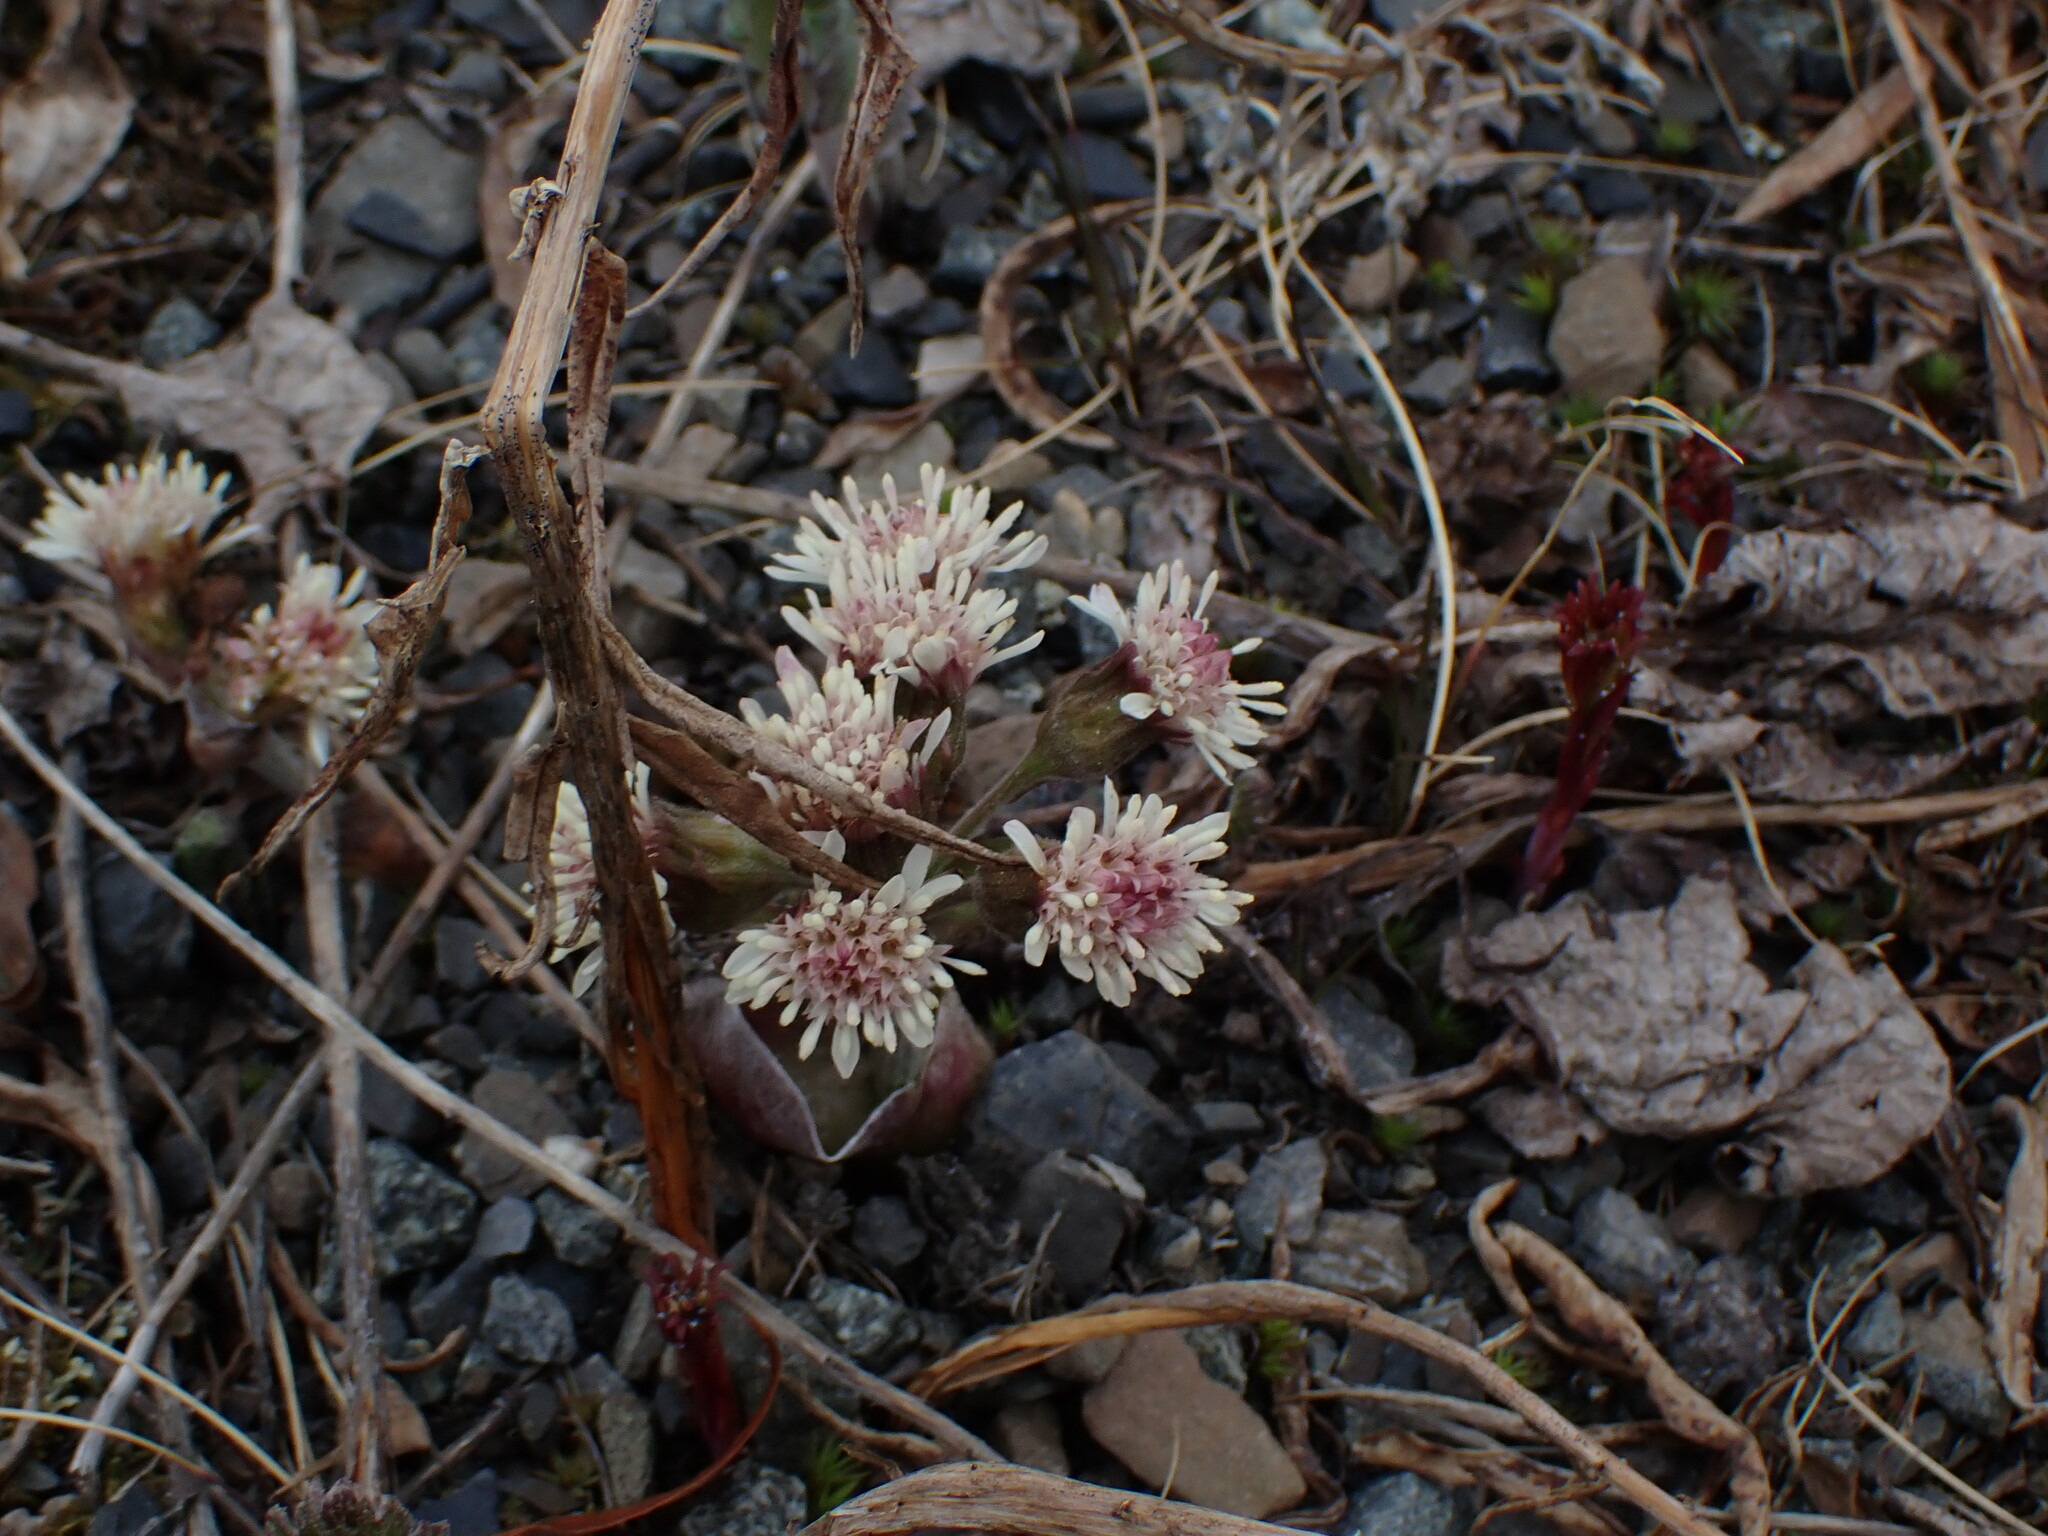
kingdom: Plantae
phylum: Tracheophyta
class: Magnoliopsida
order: Asterales
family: Asteraceae
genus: Petasites
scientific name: Petasites frigidus
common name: Arctic butterbur
